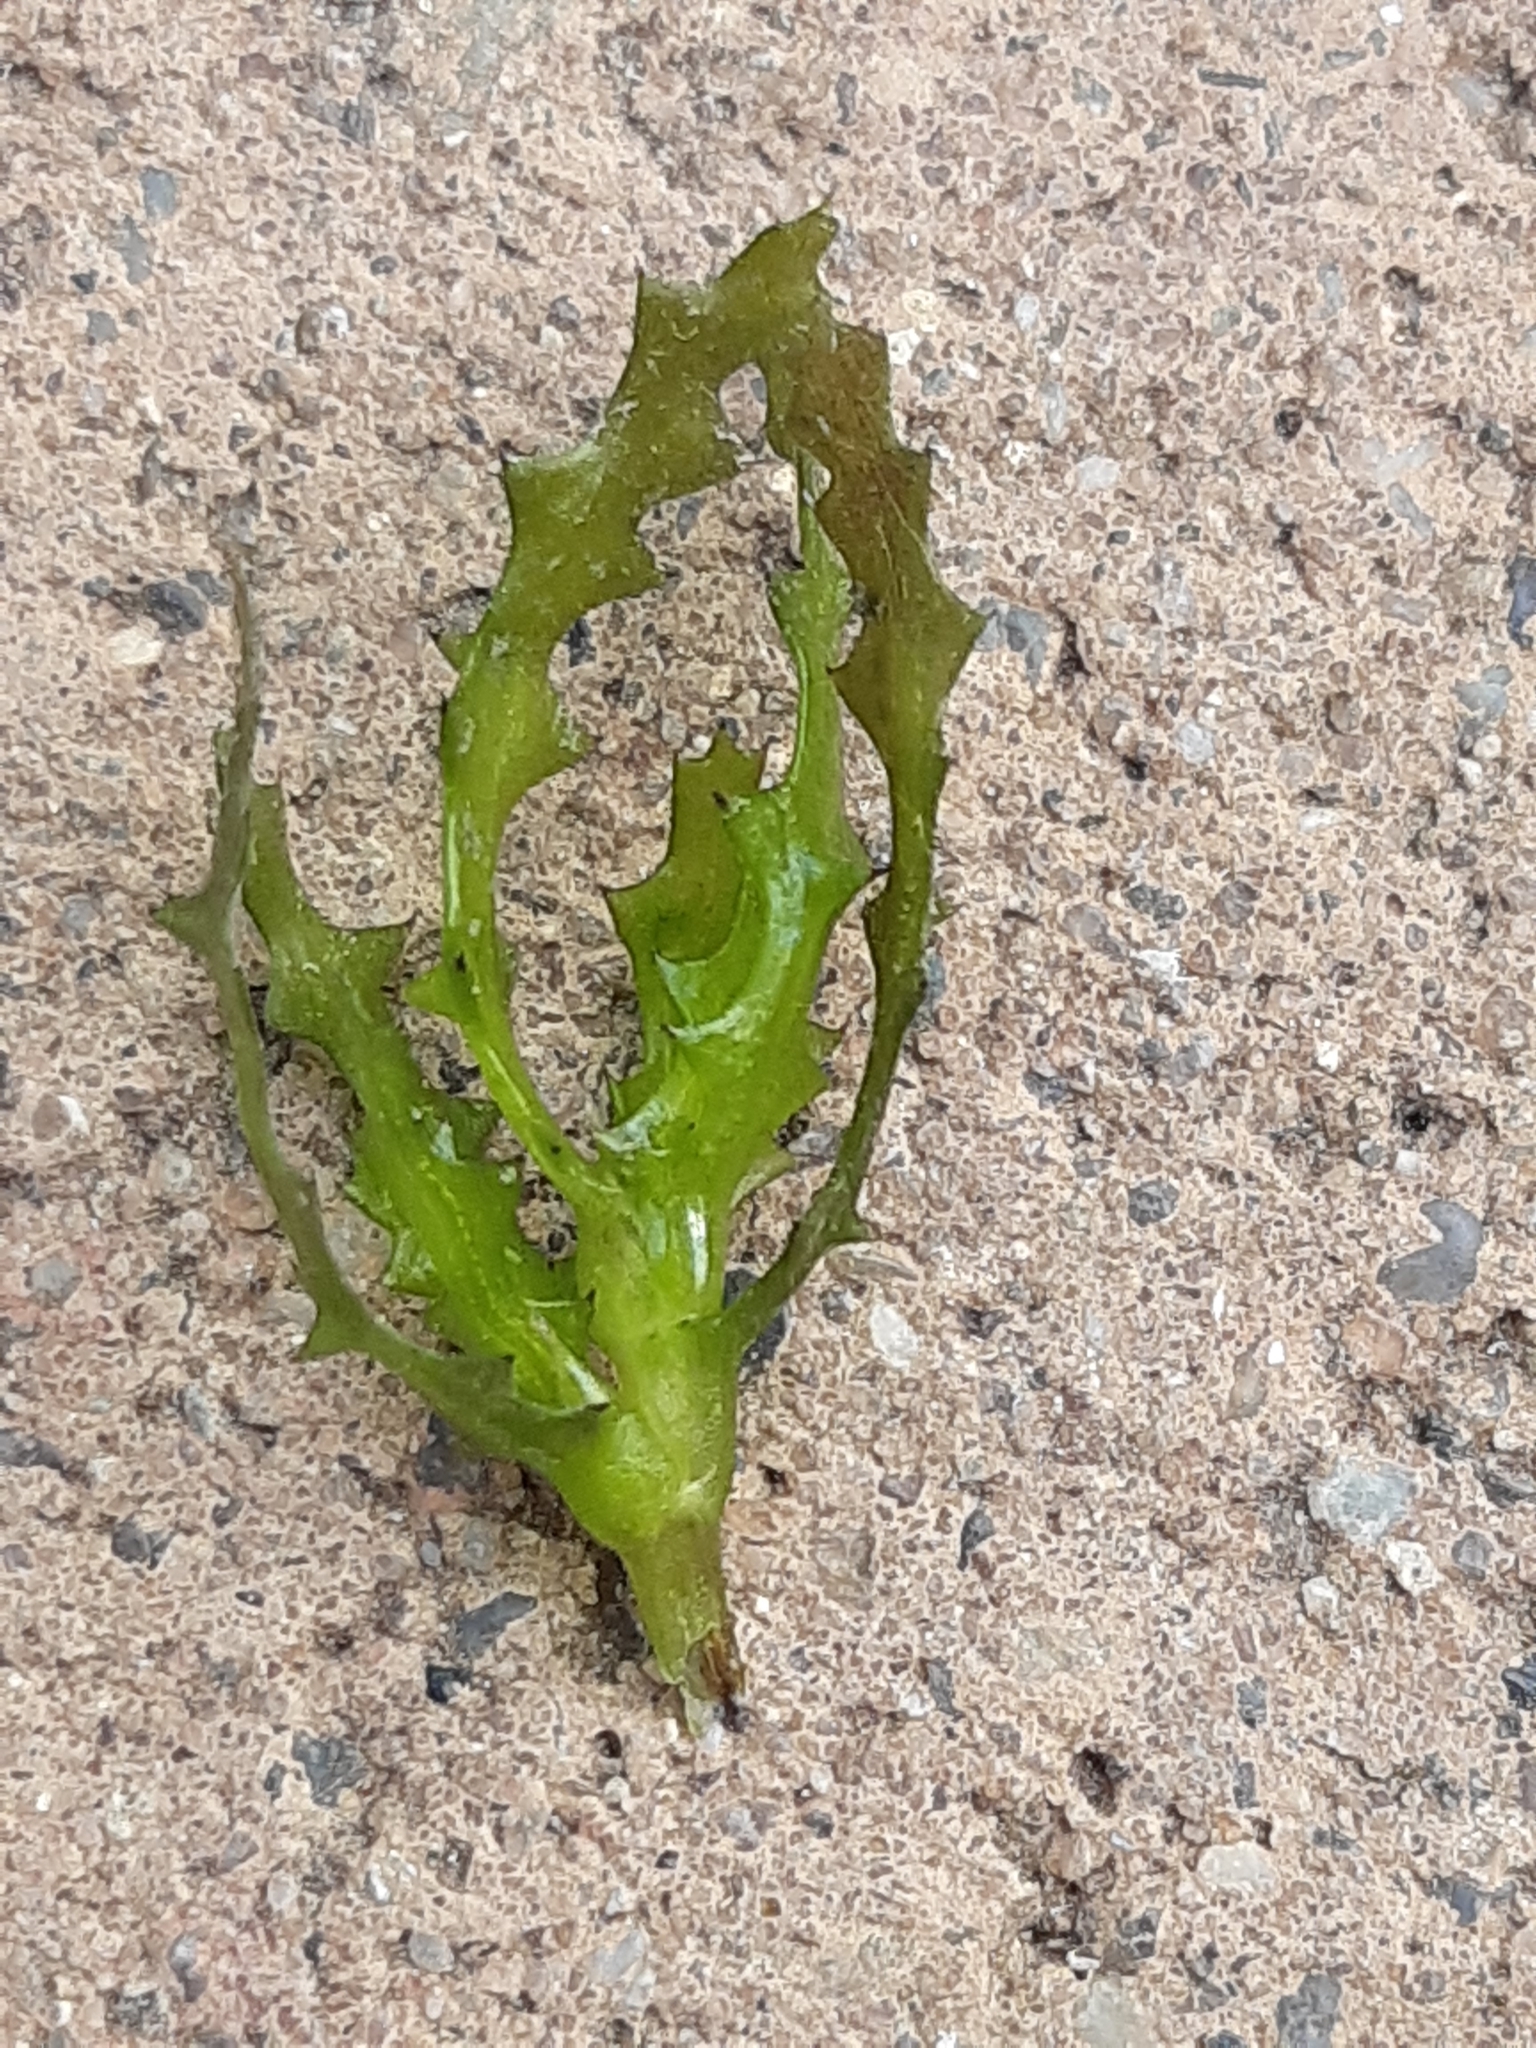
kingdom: Plantae
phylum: Tracheophyta
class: Liliopsida
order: Alismatales
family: Hydrocharitaceae
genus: Najas
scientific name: Najas marina
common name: Holly-leaved naiad
